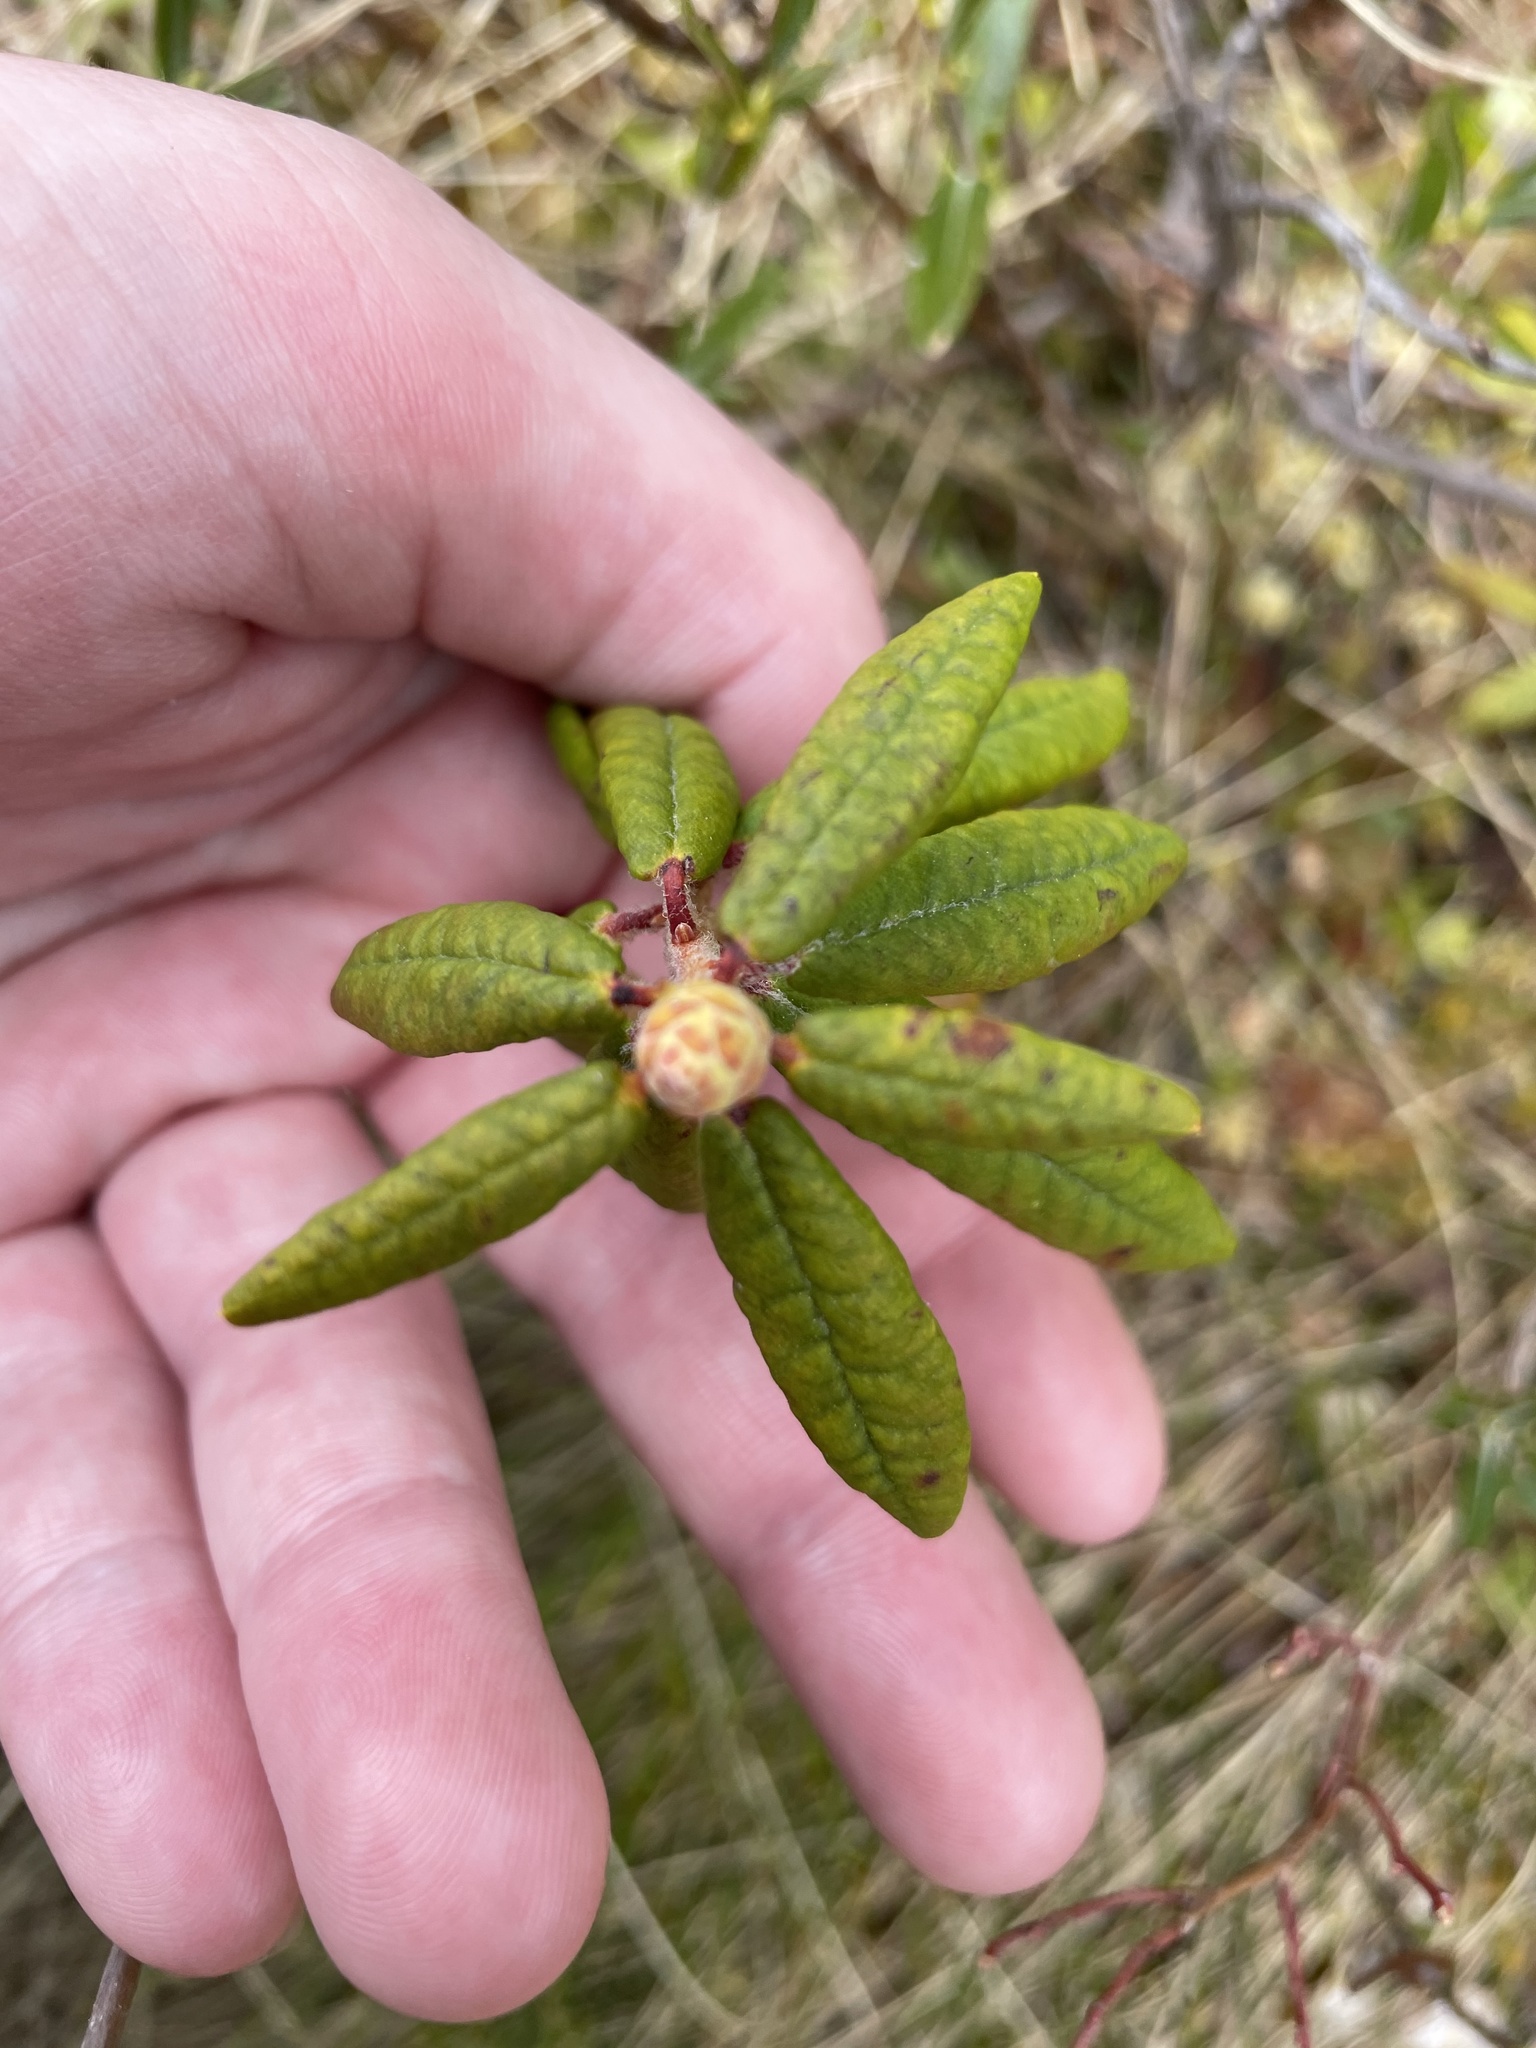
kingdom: Plantae
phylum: Tracheophyta
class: Magnoliopsida
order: Ericales
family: Ericaceae
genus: Rhododendron
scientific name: Rhododendron groenlandicum
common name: Bog labrador tea
